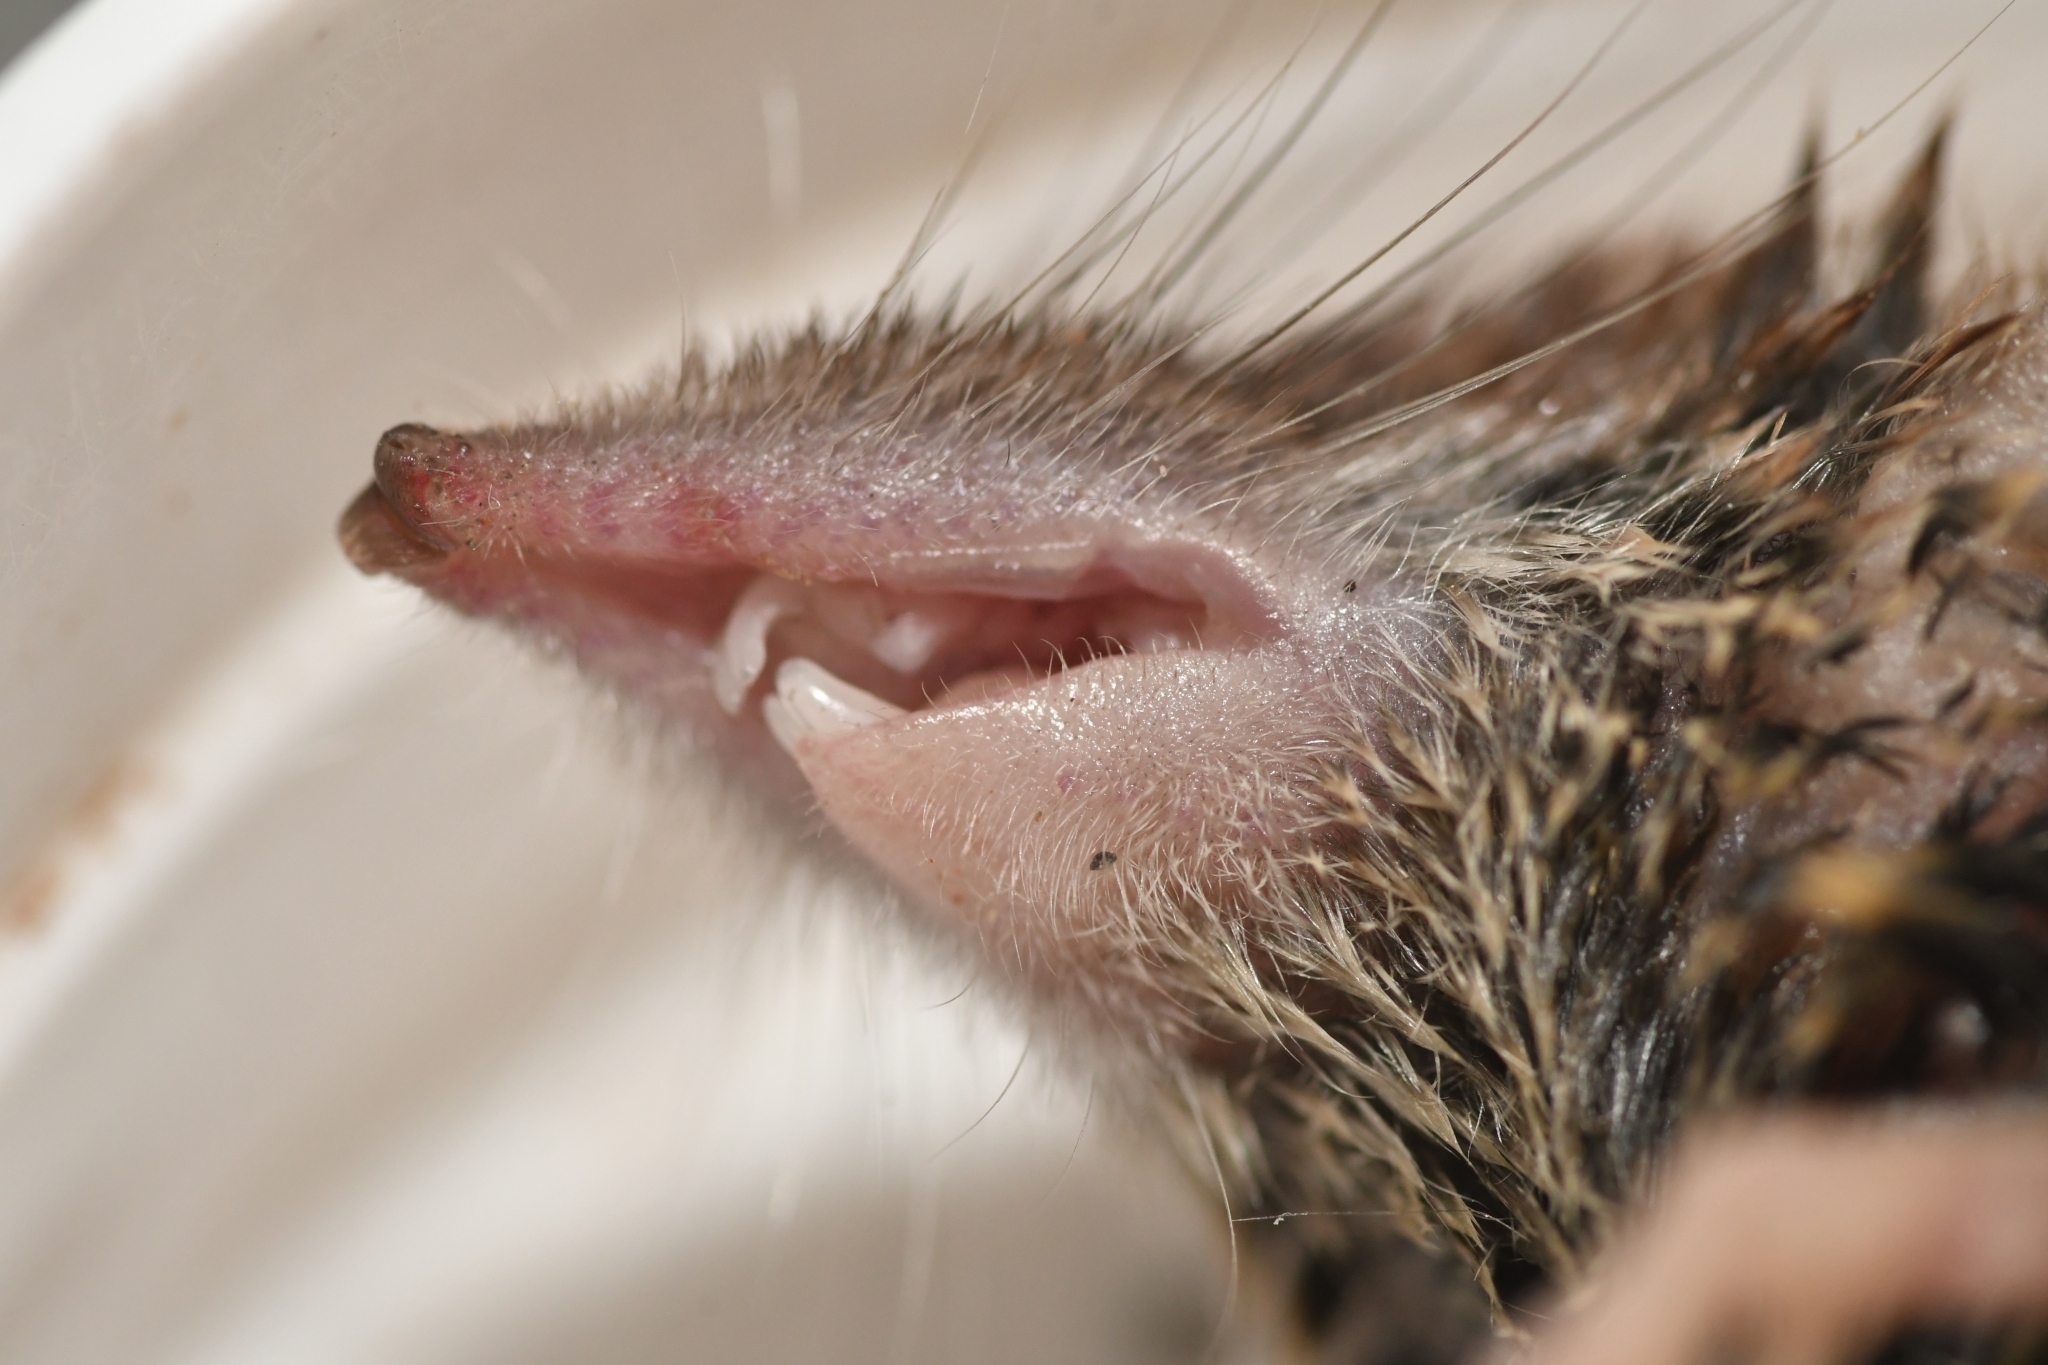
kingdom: Animalia
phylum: Chordata
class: Mammalia
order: Soricomorpha
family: Soricidae
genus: Crocidura
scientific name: Crocidura russula
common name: Greater white-toothed shrew
